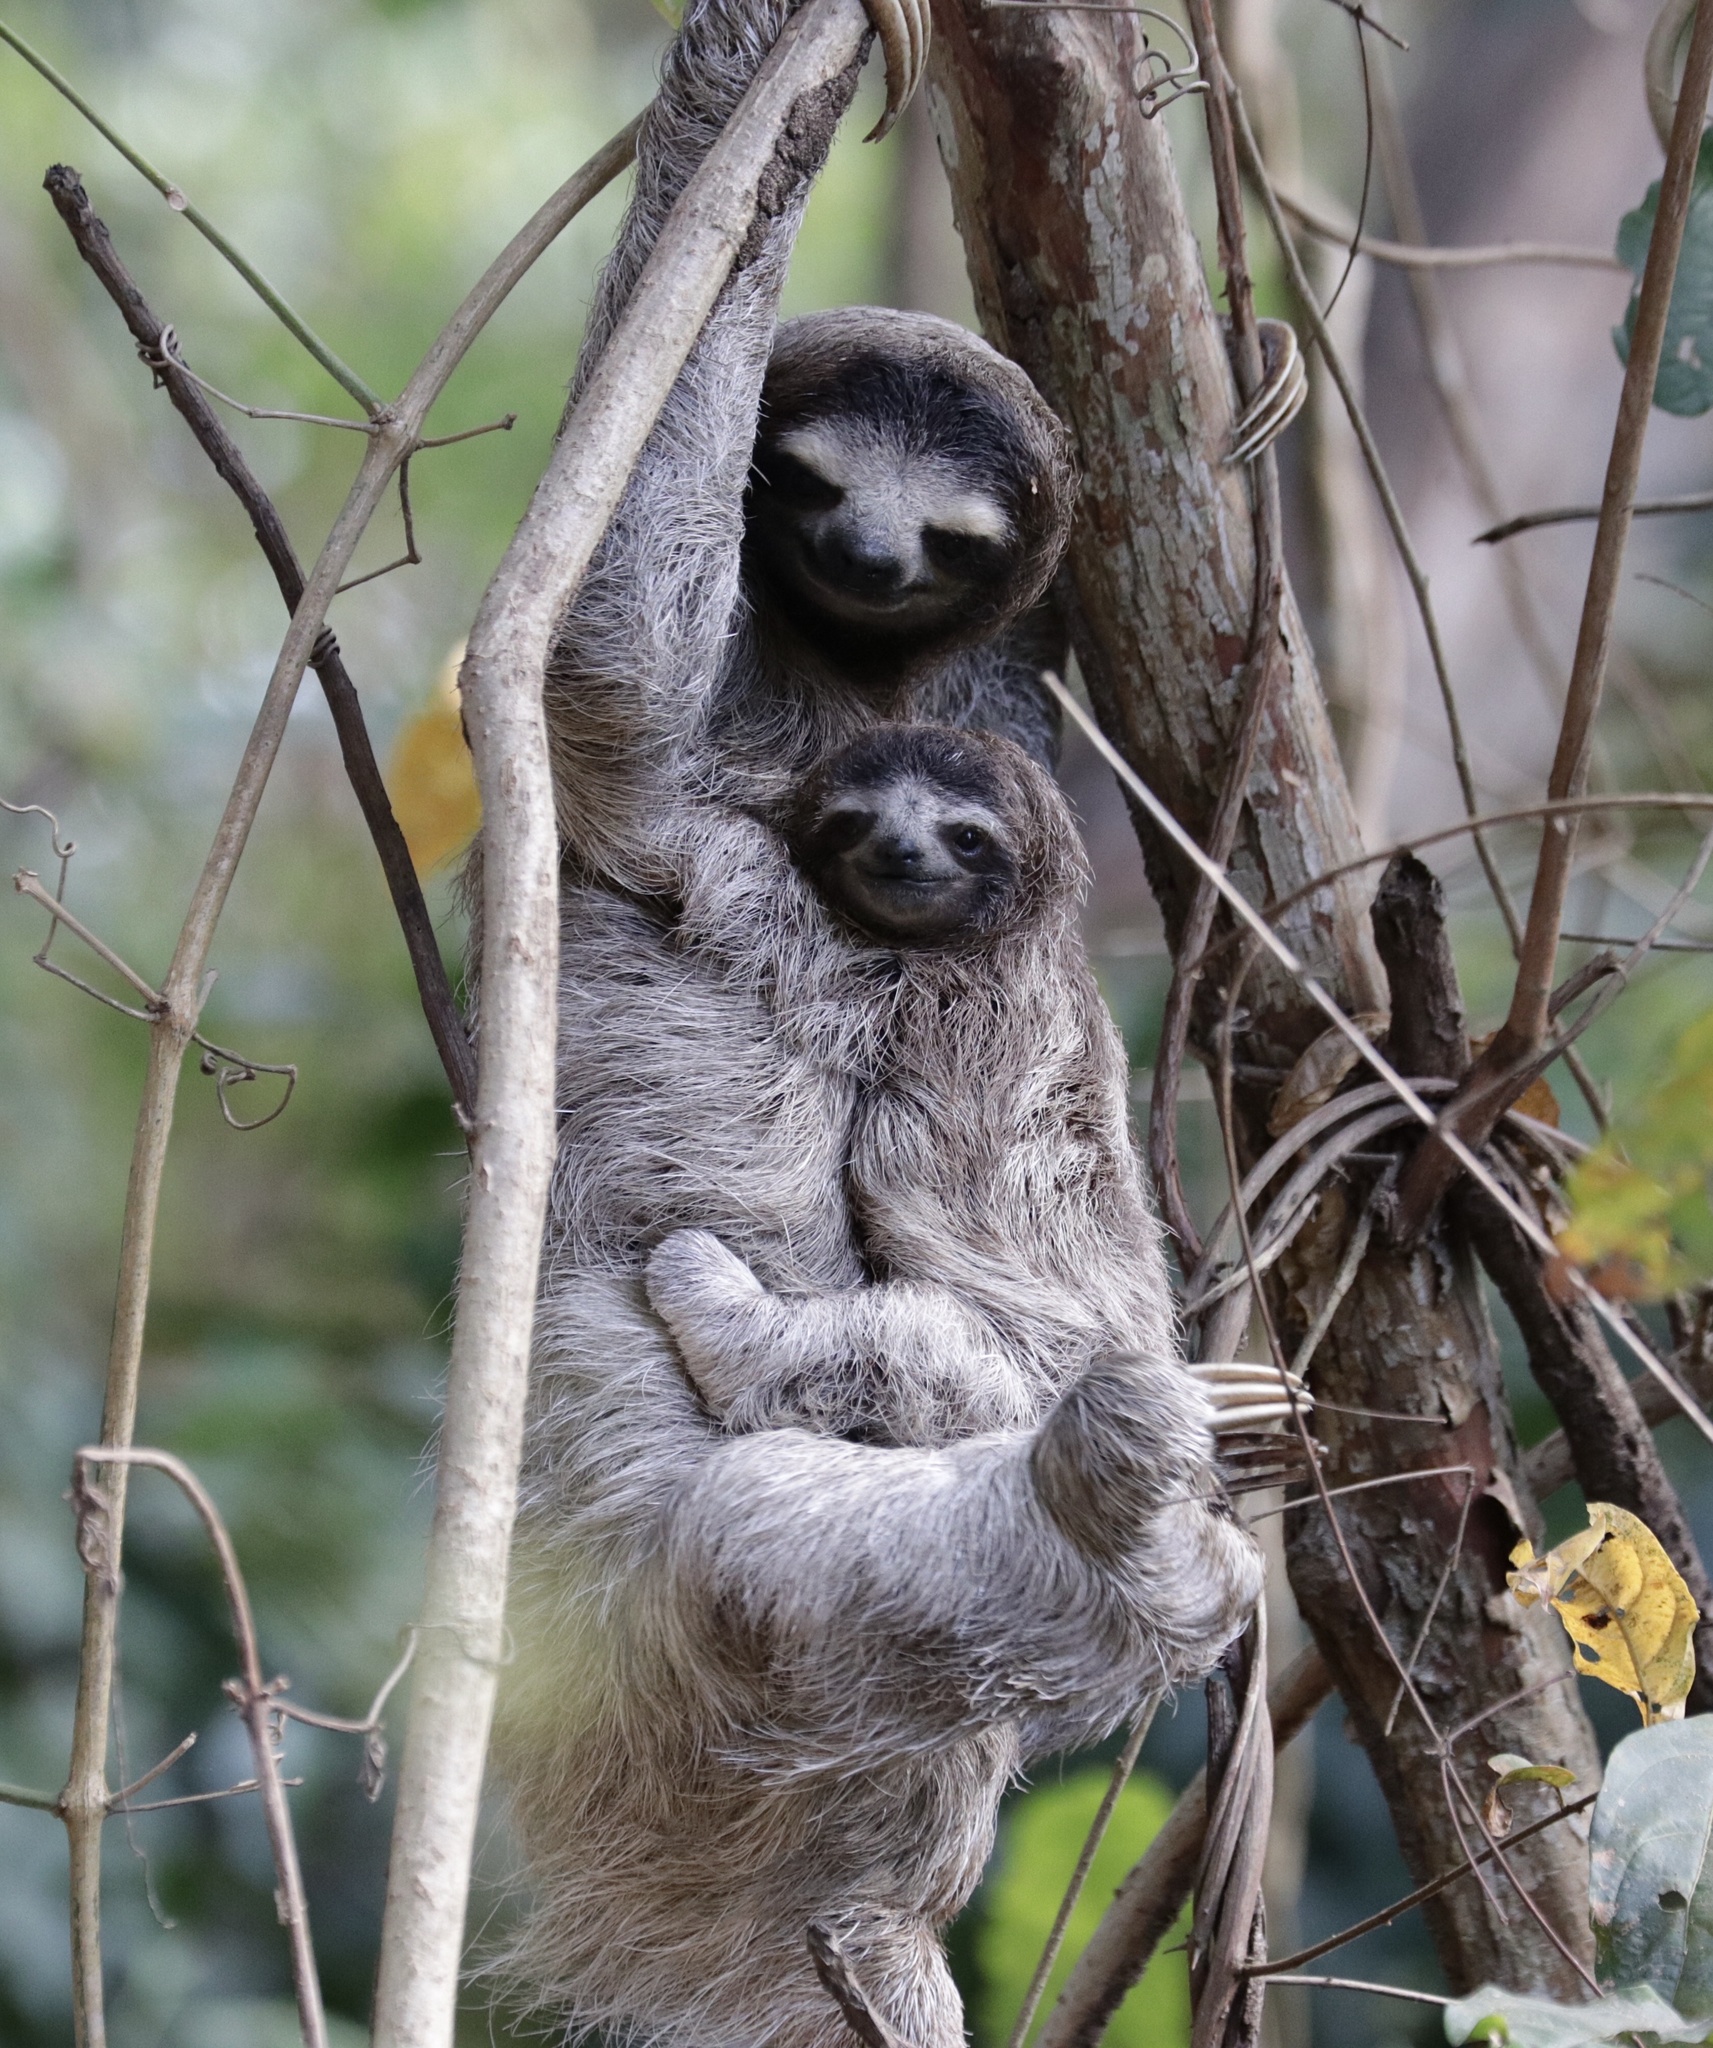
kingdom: Animalia
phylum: Chordata
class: Mammalia
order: Pilosa
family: Bradypodidae
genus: Bradypus
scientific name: Bradypus variegatus
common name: Brown-throated three-toed sloth
